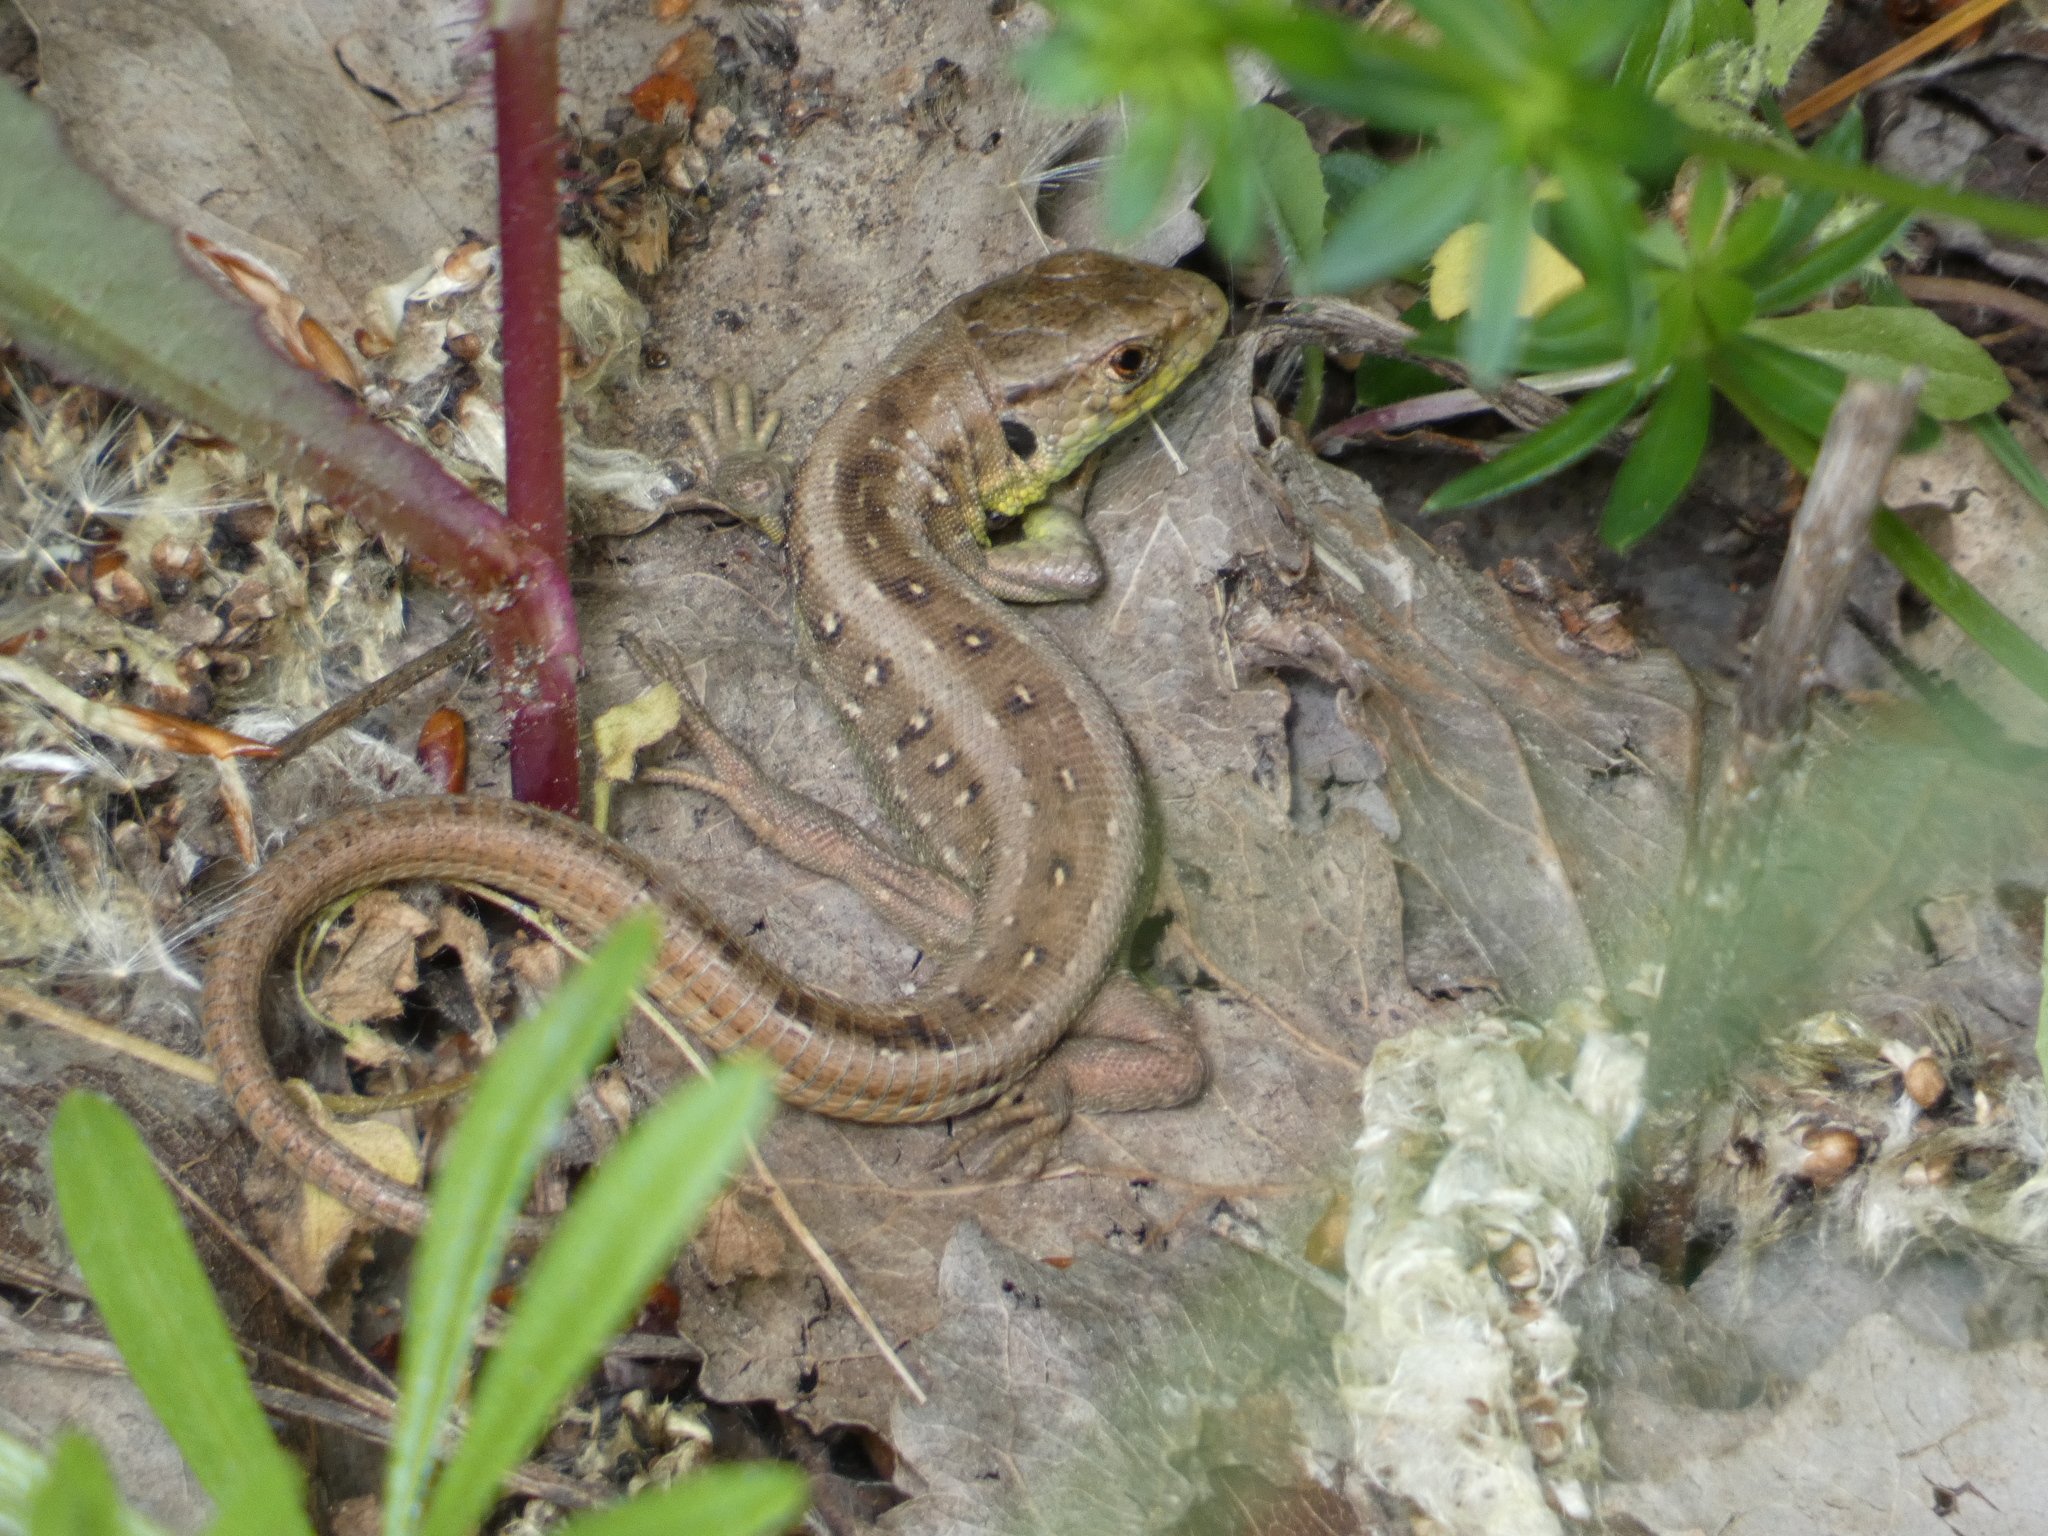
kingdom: Animalia
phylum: Chordata
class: Squamata
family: Lacertidae
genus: Lacerta
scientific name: Lacerta agilis
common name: Sand lizard
